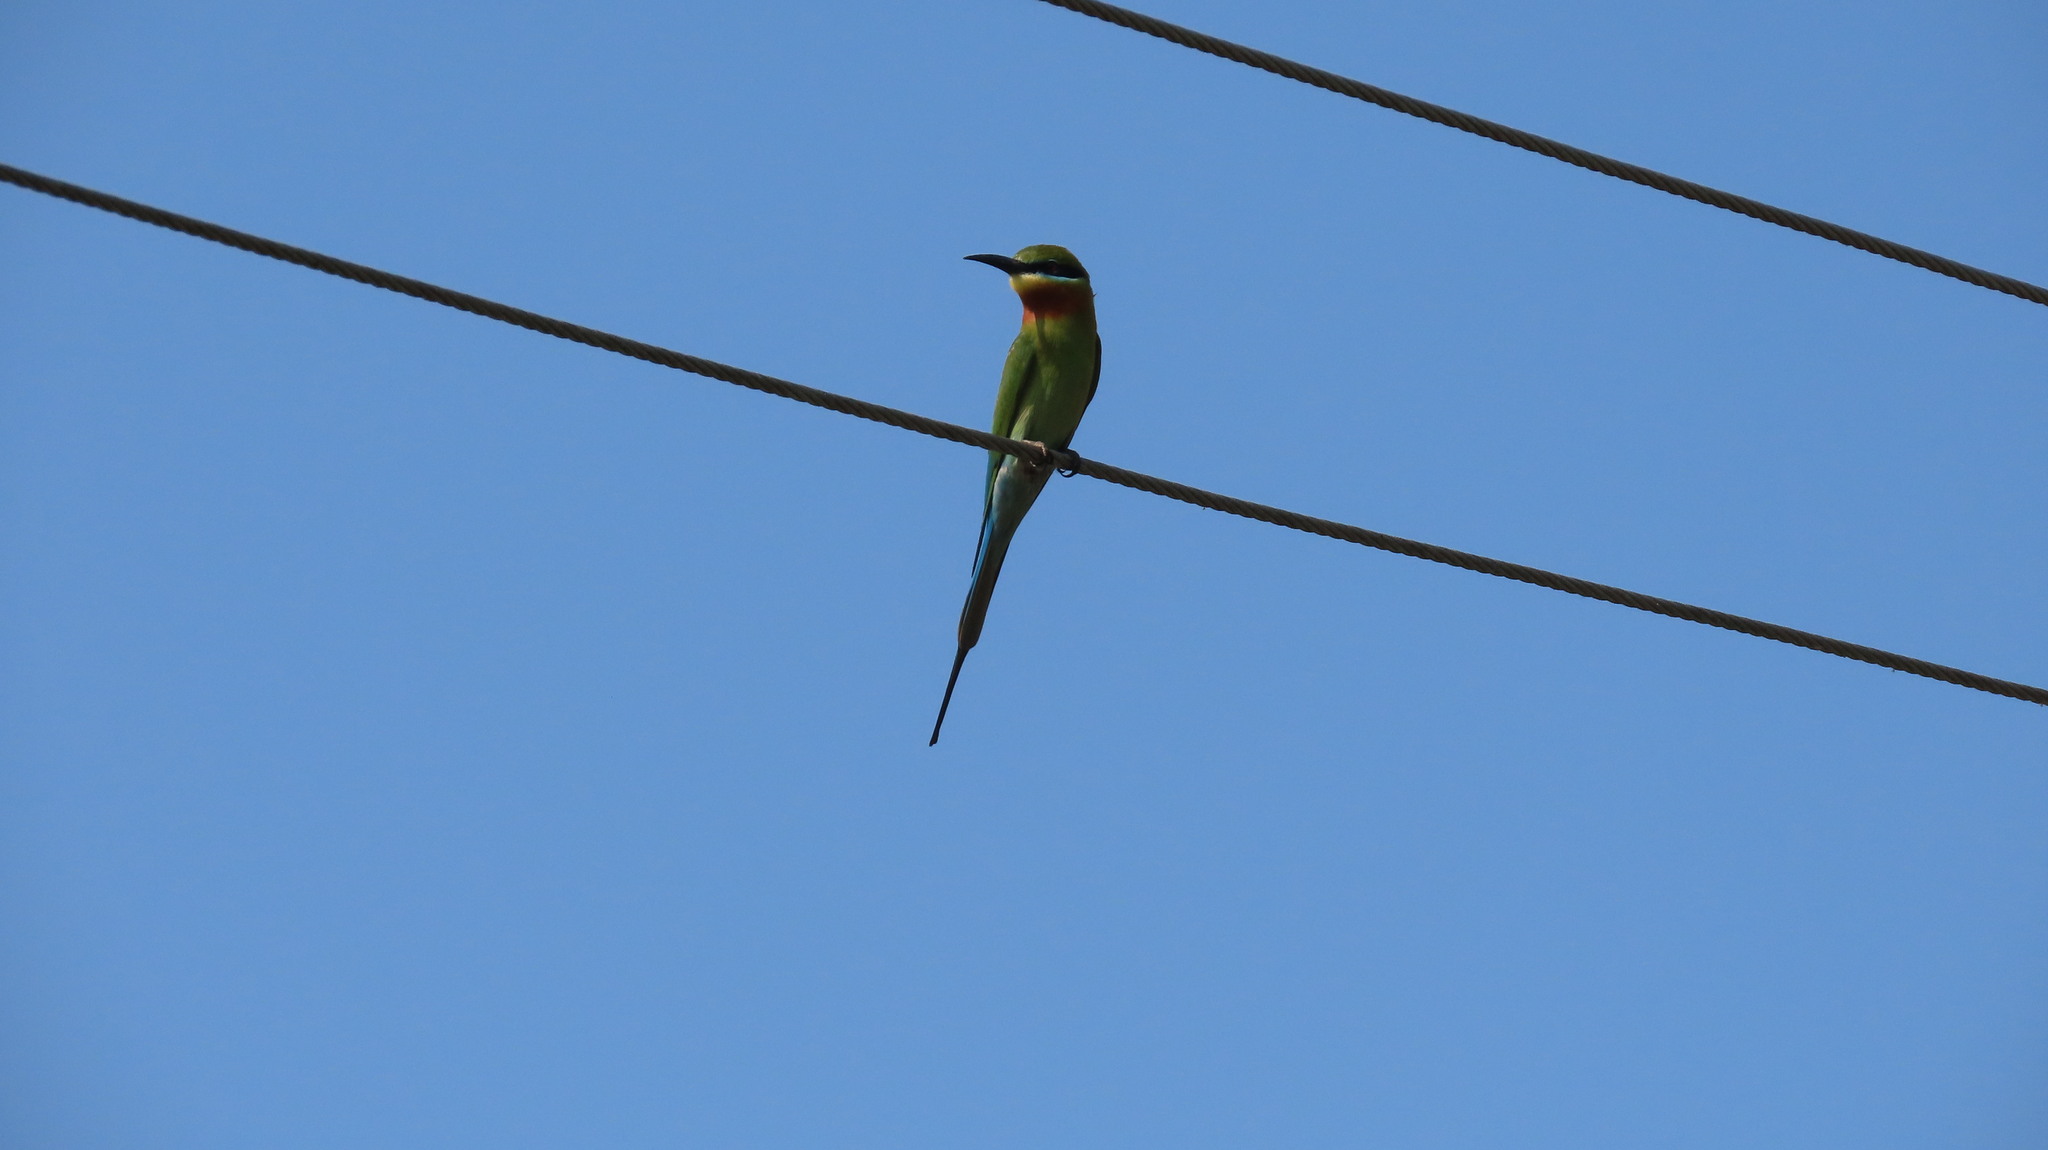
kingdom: Animalia
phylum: Chordata
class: Aves
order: Coraciiformes
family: Meropidae
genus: Merops
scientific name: Merops philippinus
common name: Blue-tailed bee-eater
